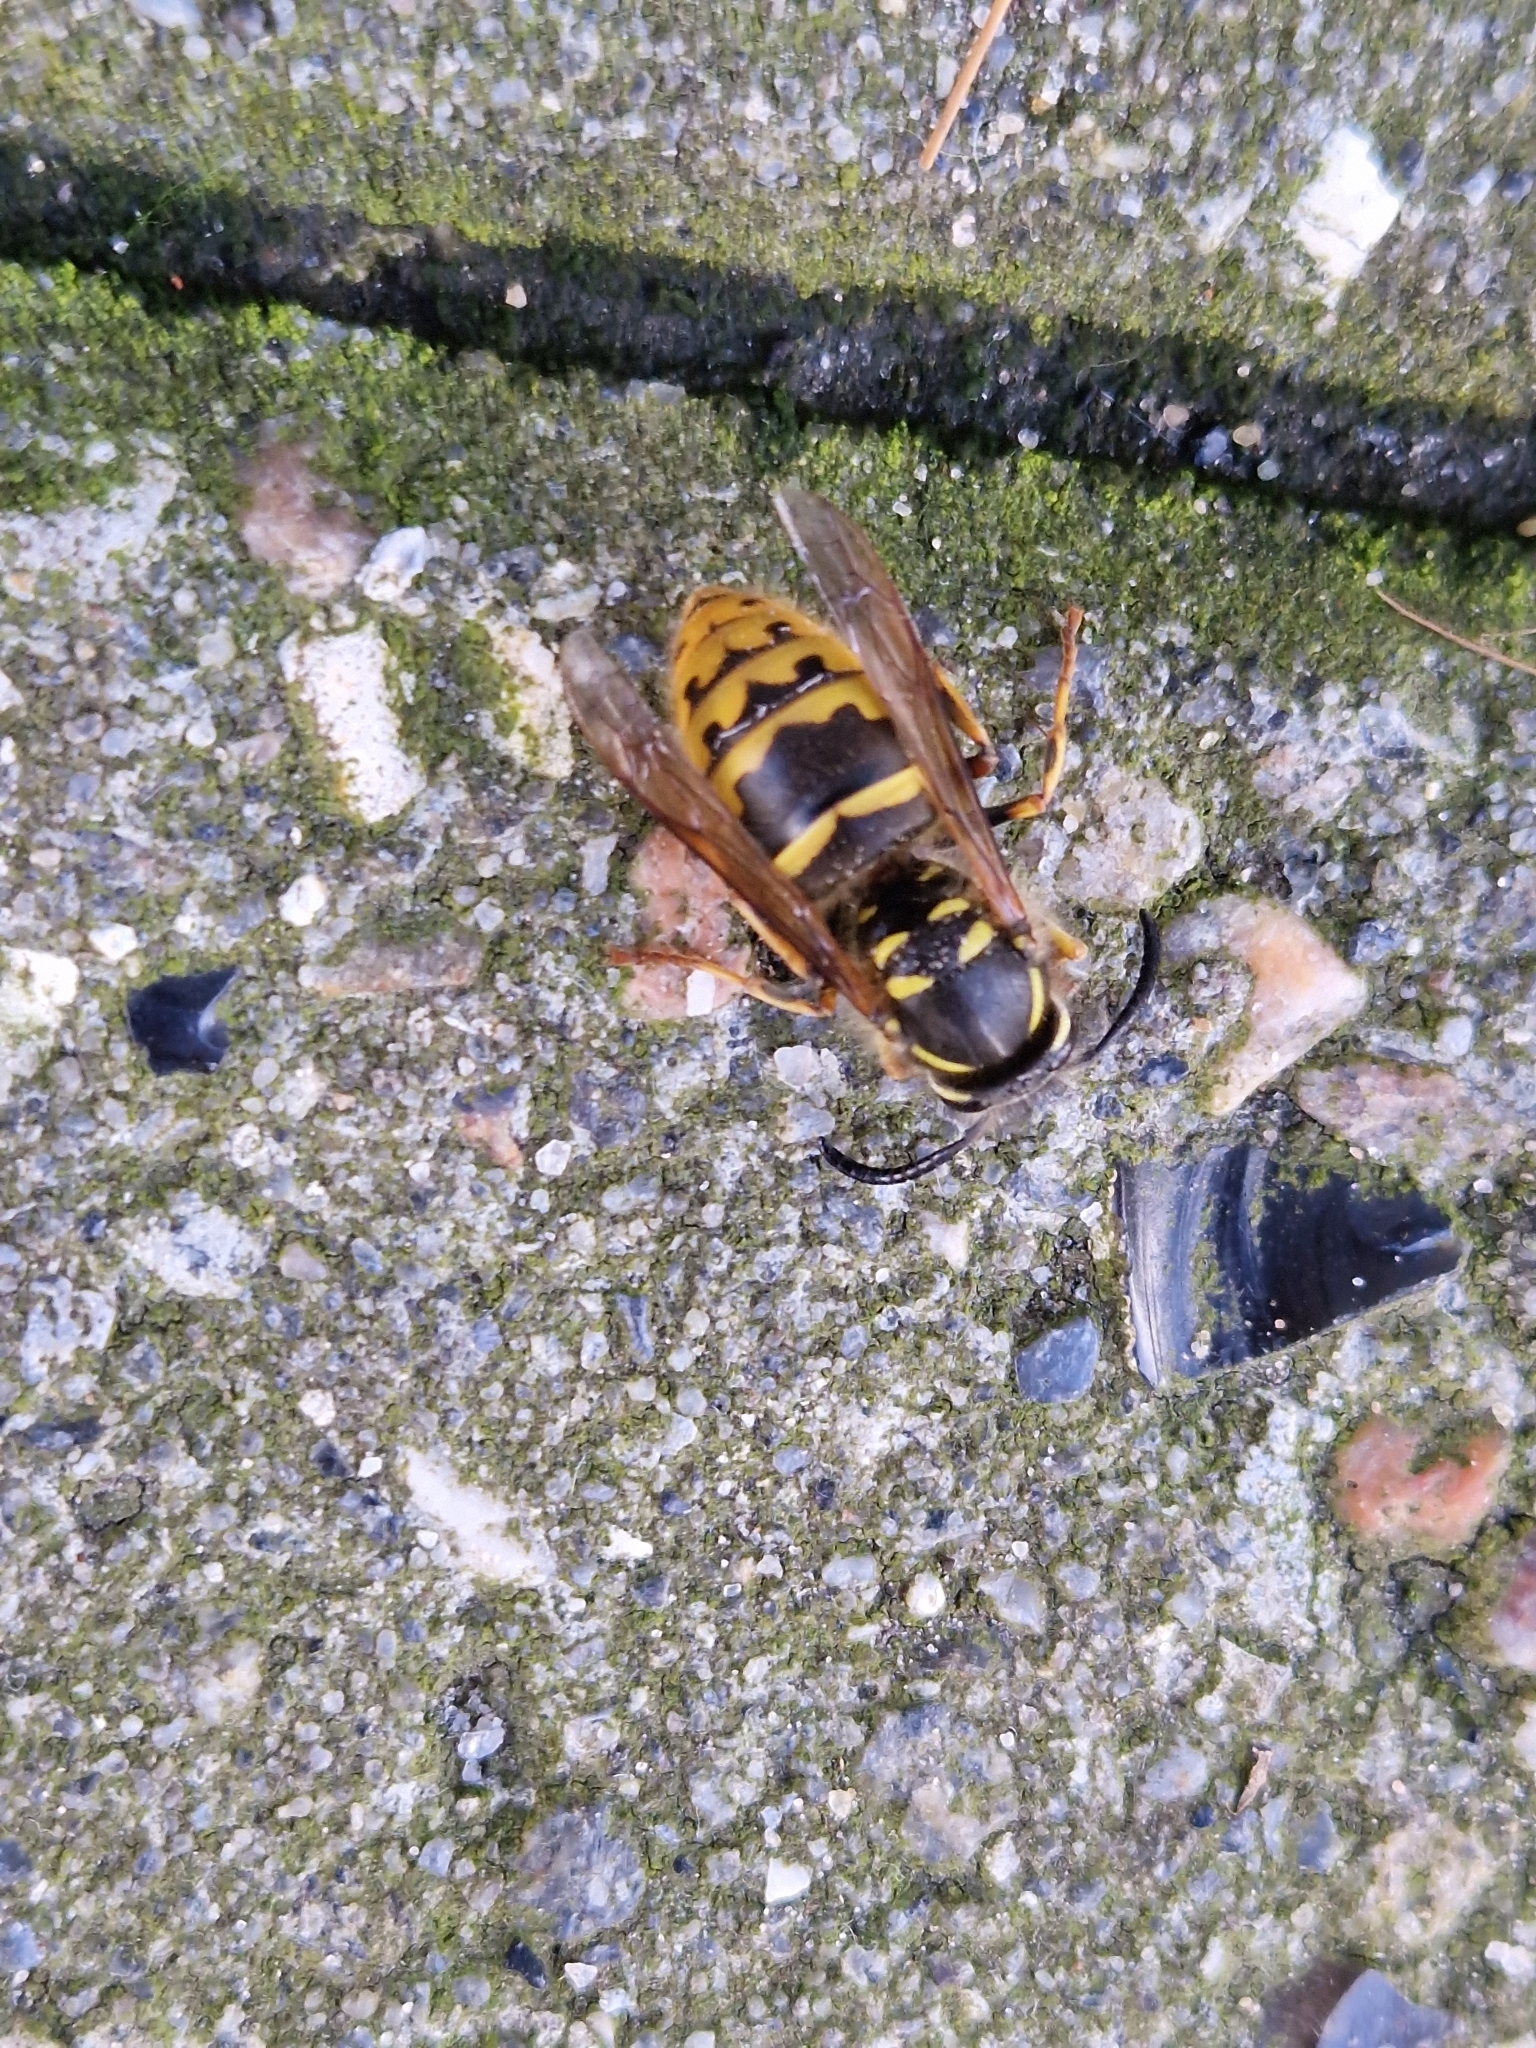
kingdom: Animalia
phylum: Arthropoda
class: Insecta
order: Hymenoptera
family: Vespidae
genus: Vespula
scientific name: Vespula vulgaris
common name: Common wasp
